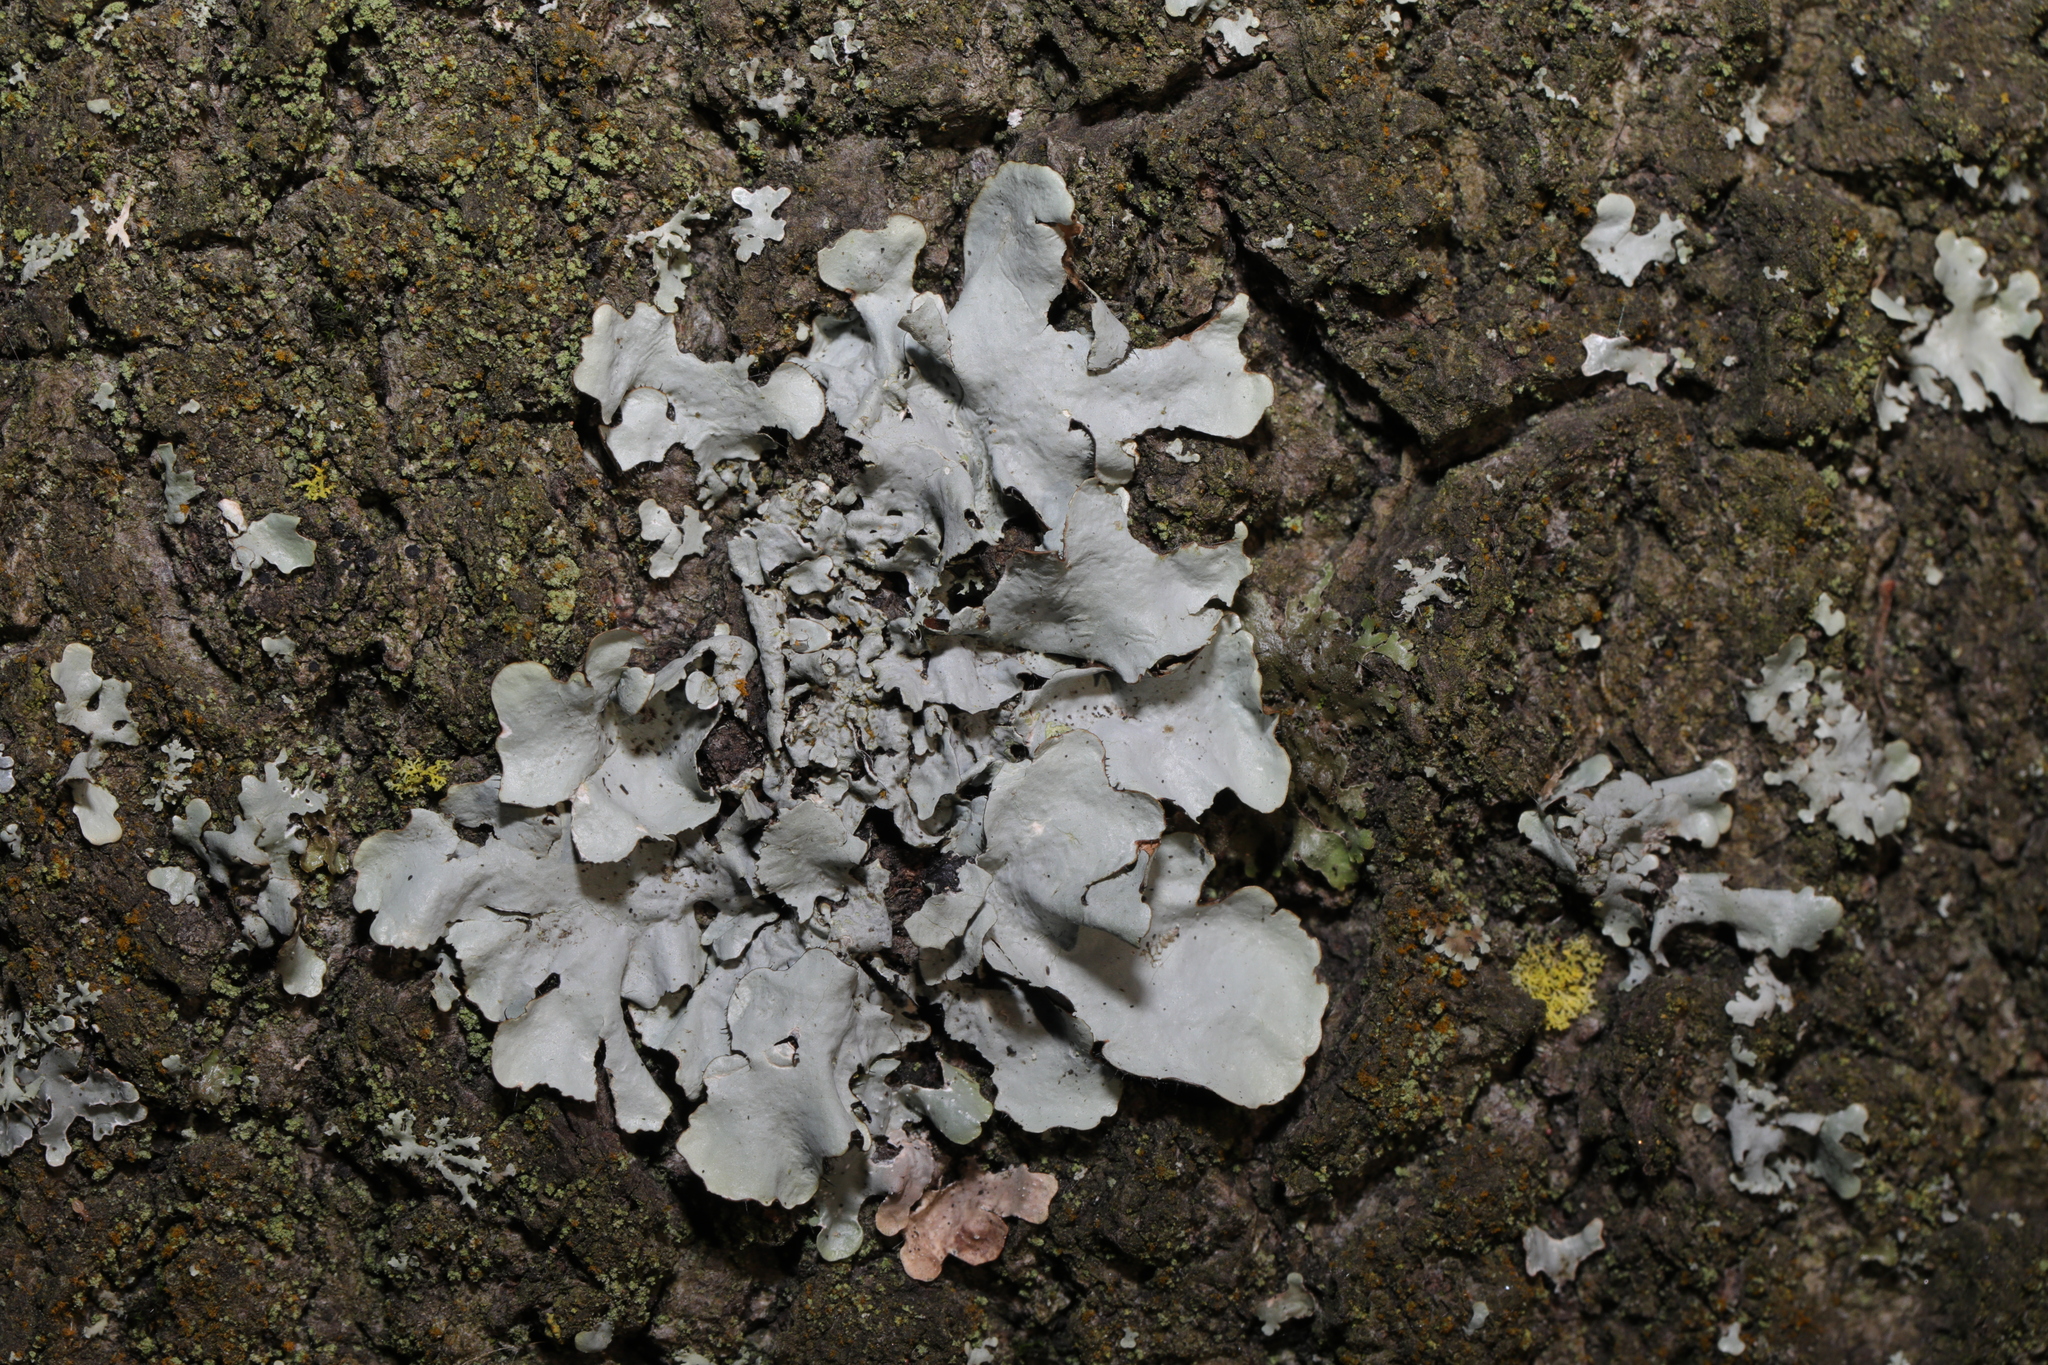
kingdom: Fungi
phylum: Ascomycota
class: Lecanoromycetes
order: Lecanorales
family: Parmeliaceae
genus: Parmotrema
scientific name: Parmotrema perlatum
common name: Black stone flower
